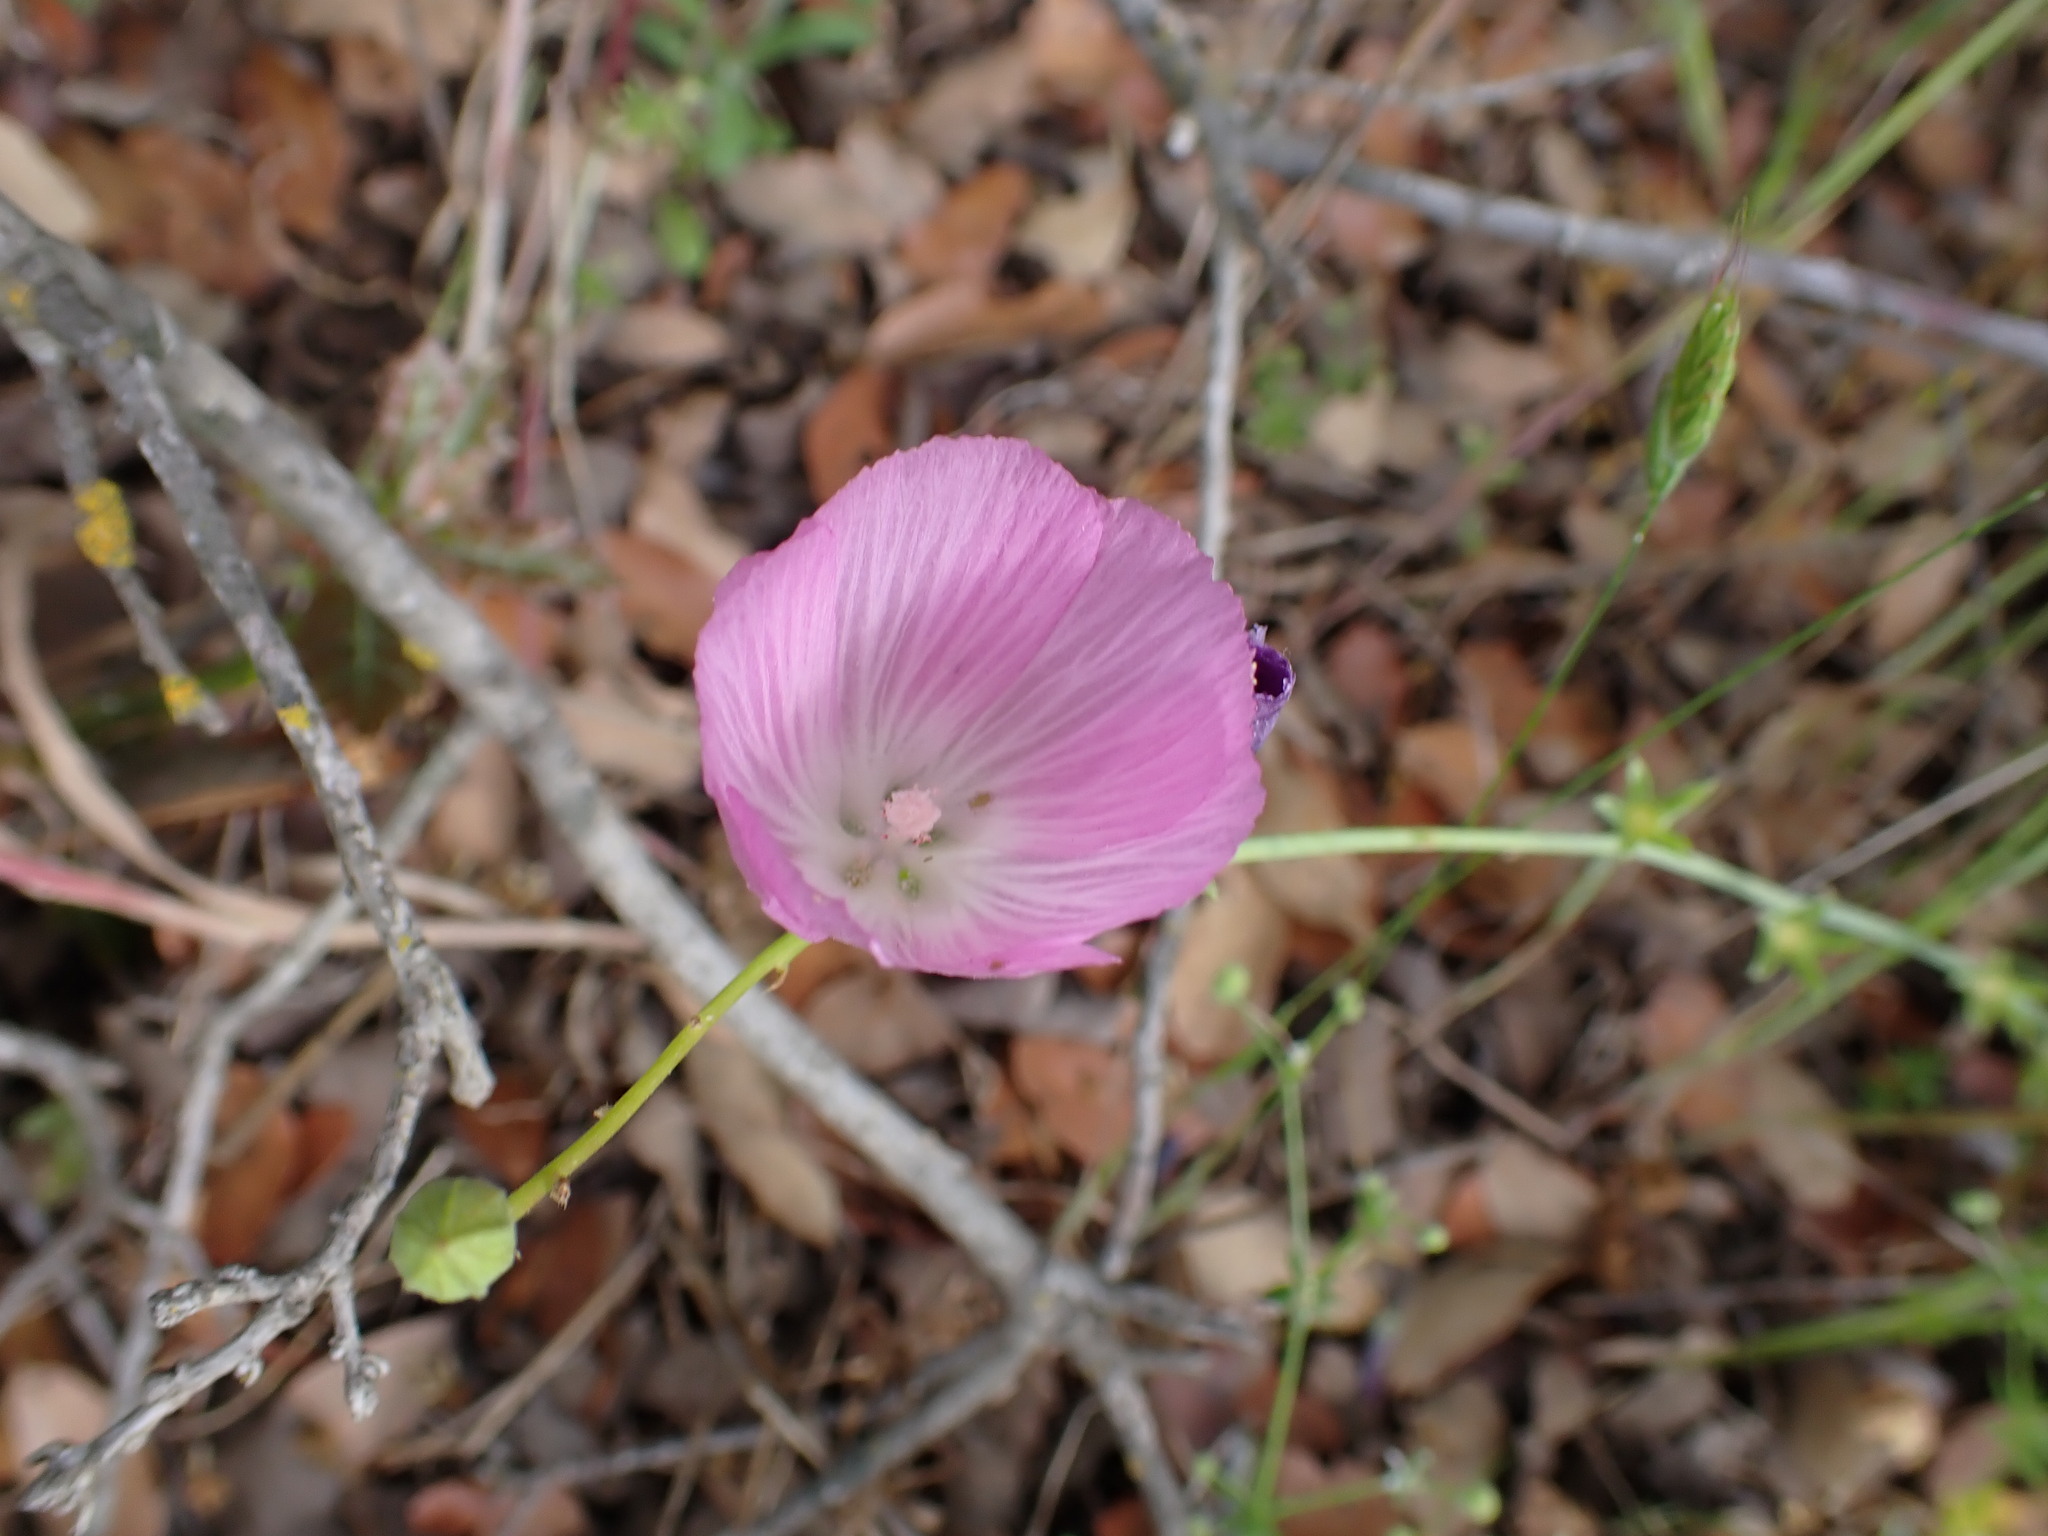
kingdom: Plantae
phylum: Tracheophyta
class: Magnoliopsida
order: Malvales
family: Malvaceae
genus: Sidalcea
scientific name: Sidalcea sparsifolia
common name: Southern checkerbloom
